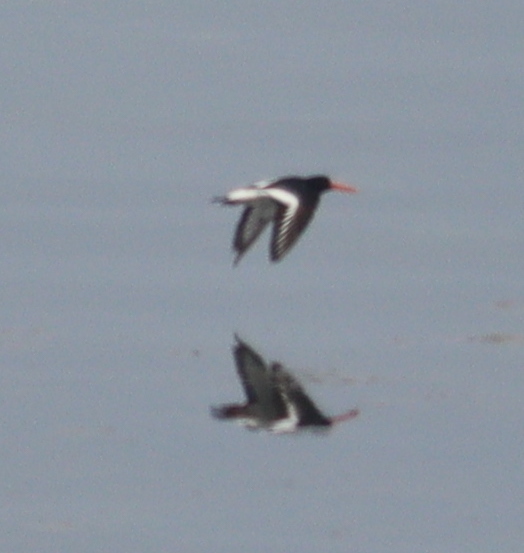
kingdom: Animalia
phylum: Chordata
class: Aves
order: Charadriiformes
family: Haematopodidae
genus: Haematopus
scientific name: Haematopus ostralegus
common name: Eurasian oystercatcher
